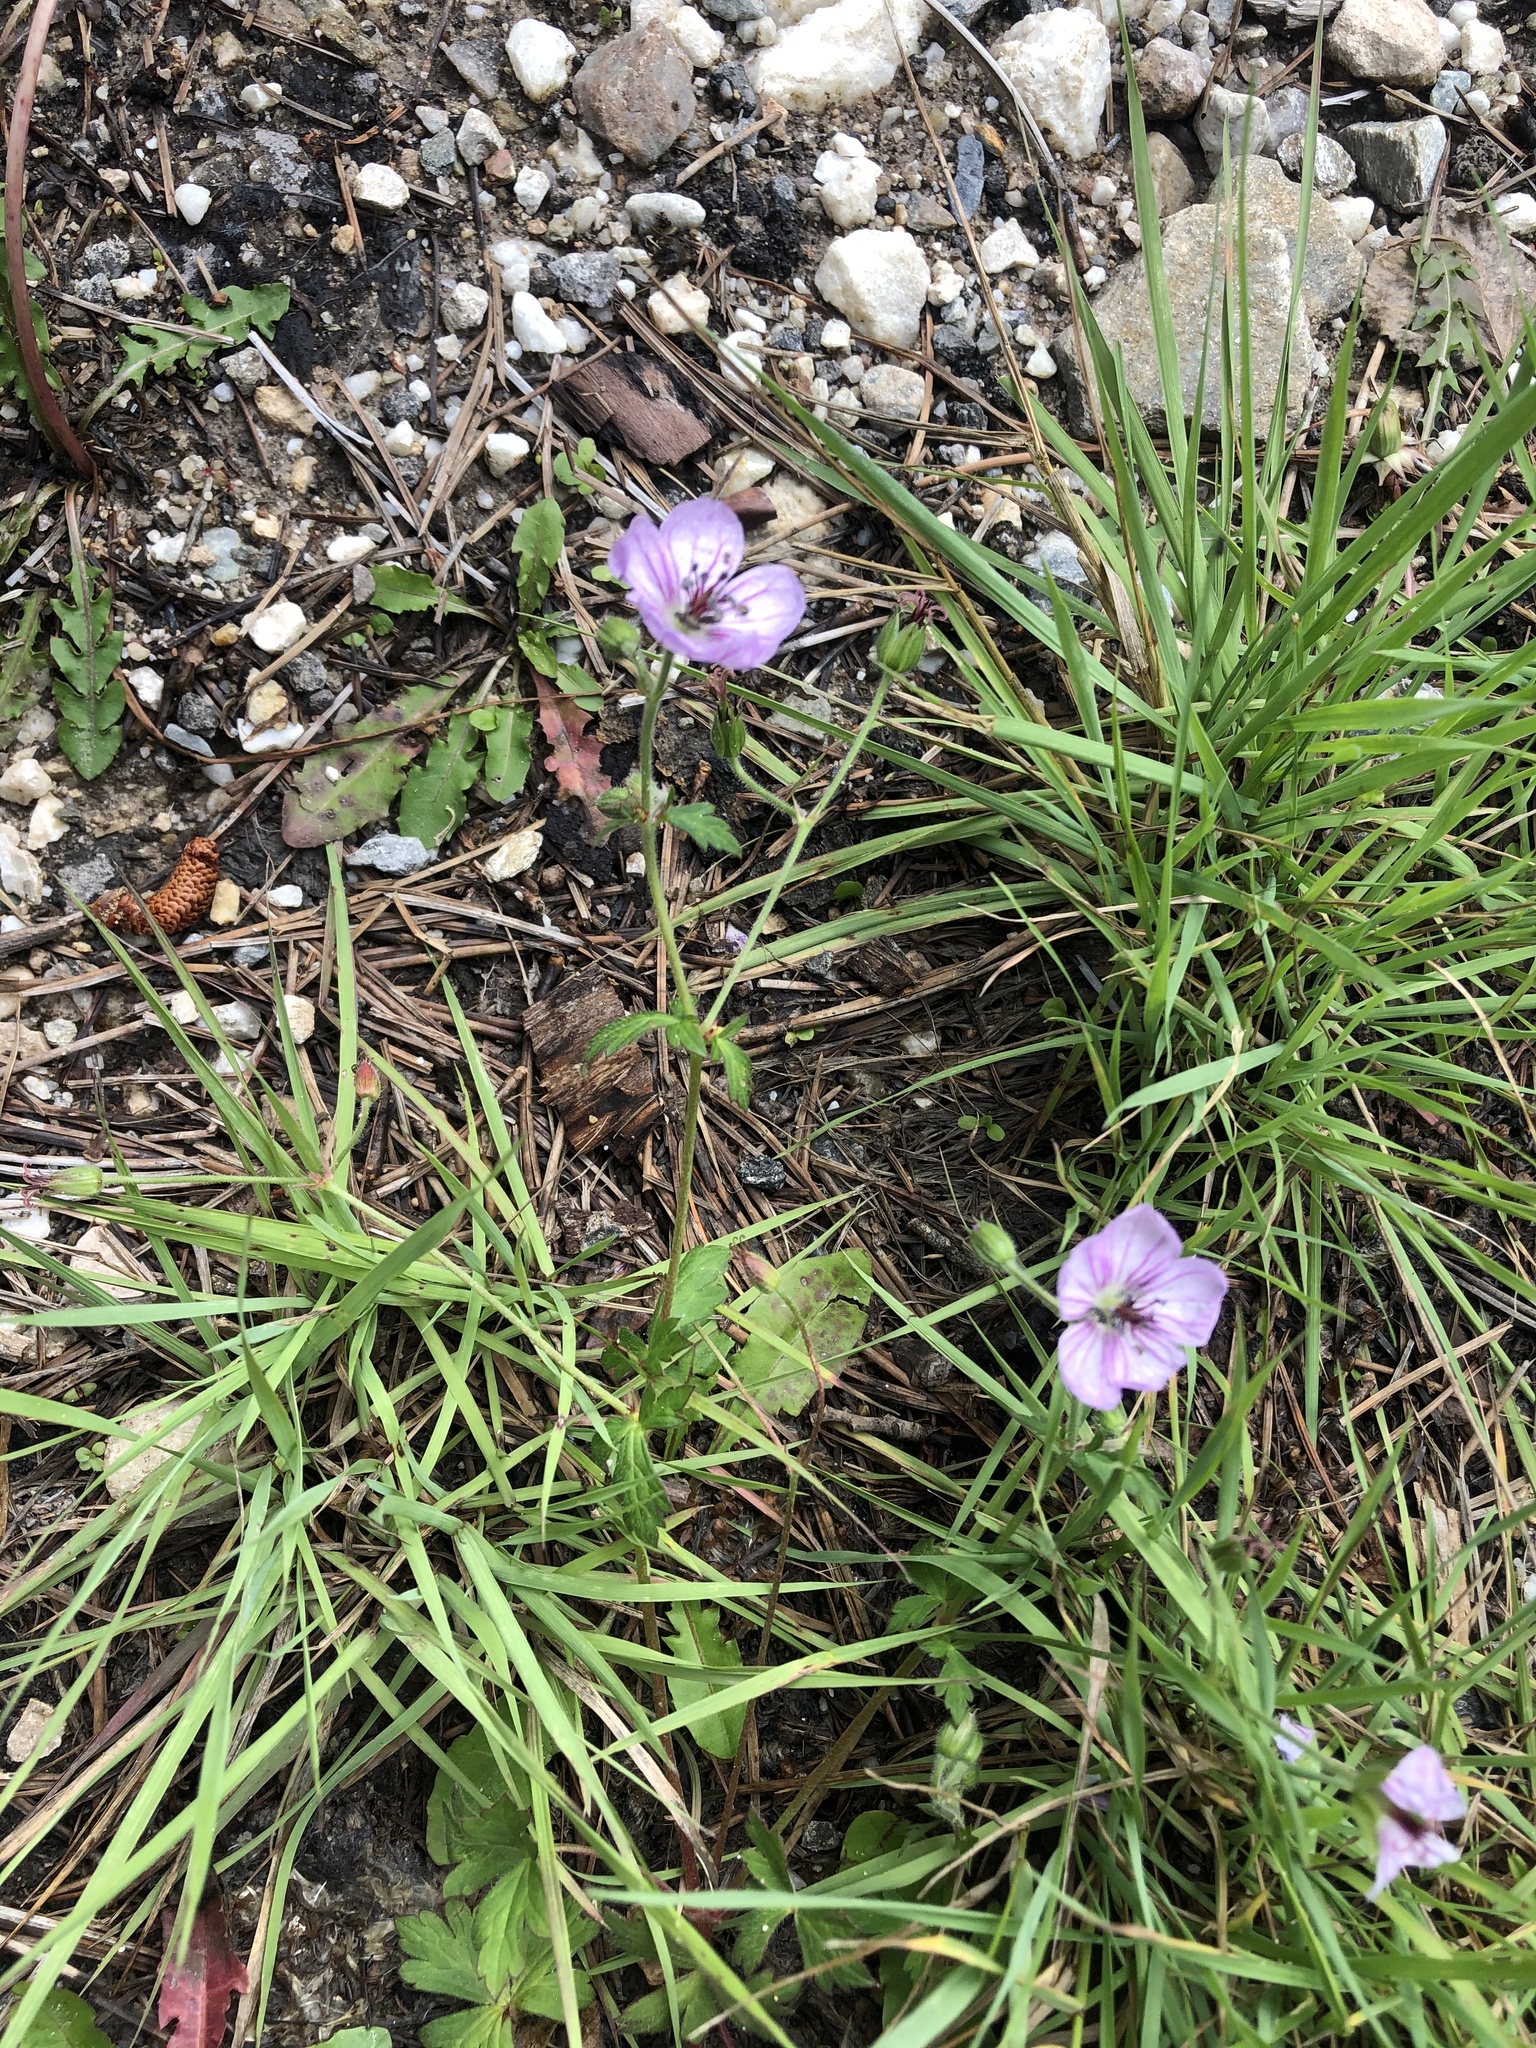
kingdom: Plantae
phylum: Tracheophyta
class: Magnoliopsida
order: Geraniales
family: Geraniaceae
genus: Geranium
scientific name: Geranium richardsonii
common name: Richardson's crane's-bill
